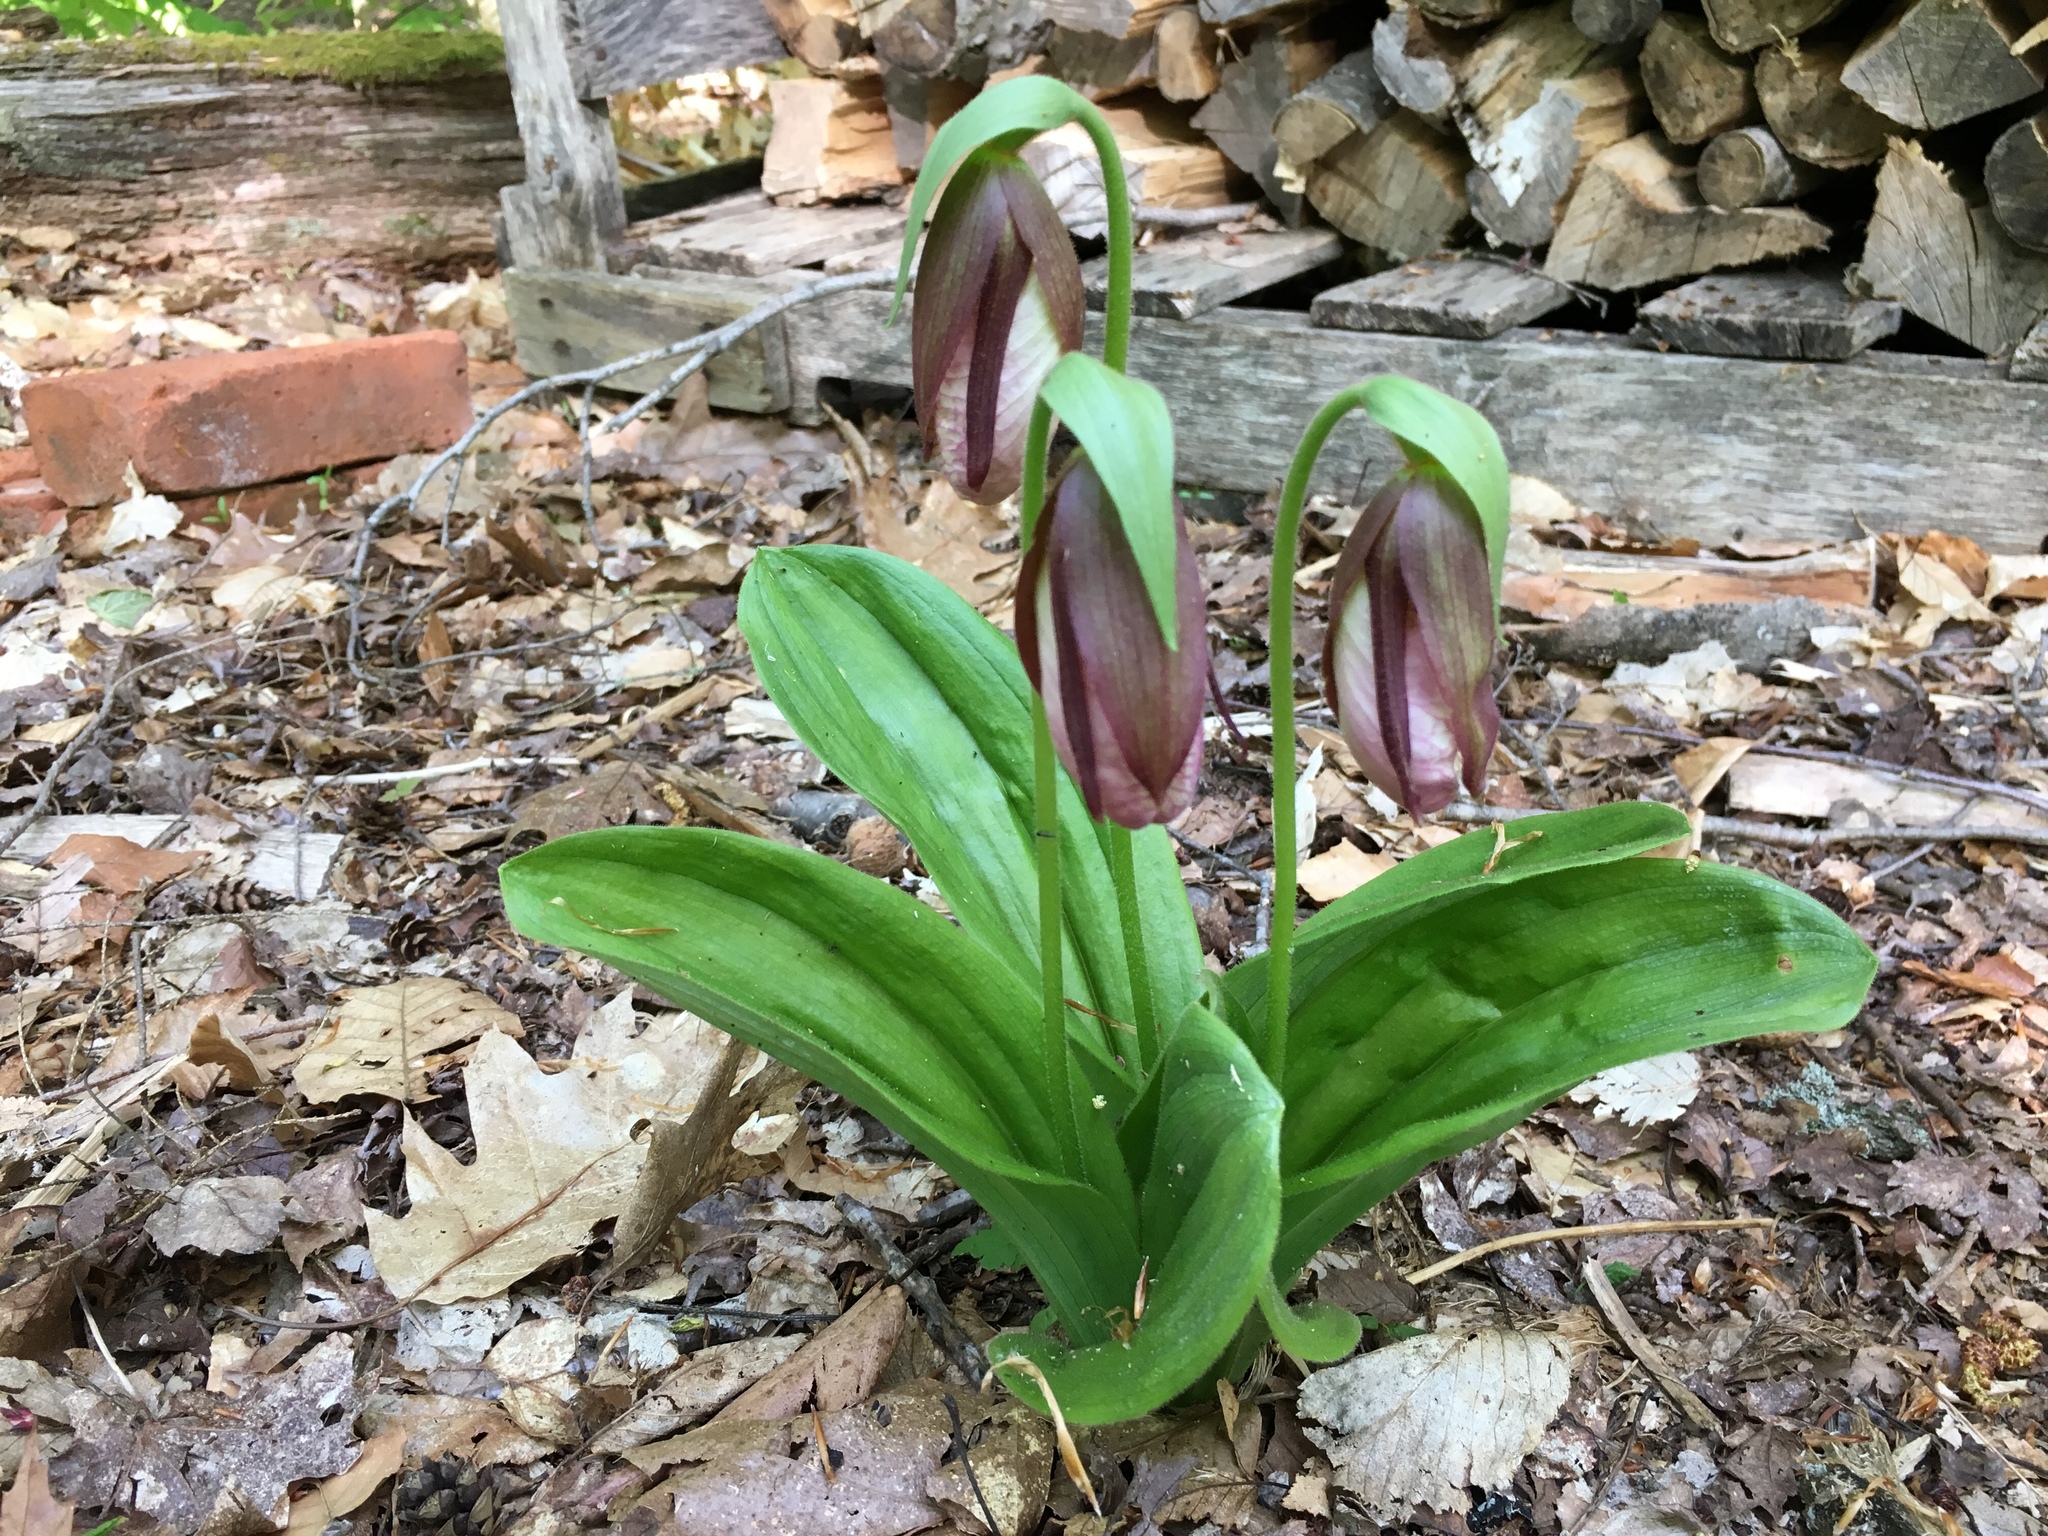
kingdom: Plantae
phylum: Tracheophyta
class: Liliopsida
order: Asparagales
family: Orchidaceae
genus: Cypripedium
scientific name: Cypripedium acaule
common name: Pink lady's-slipper
